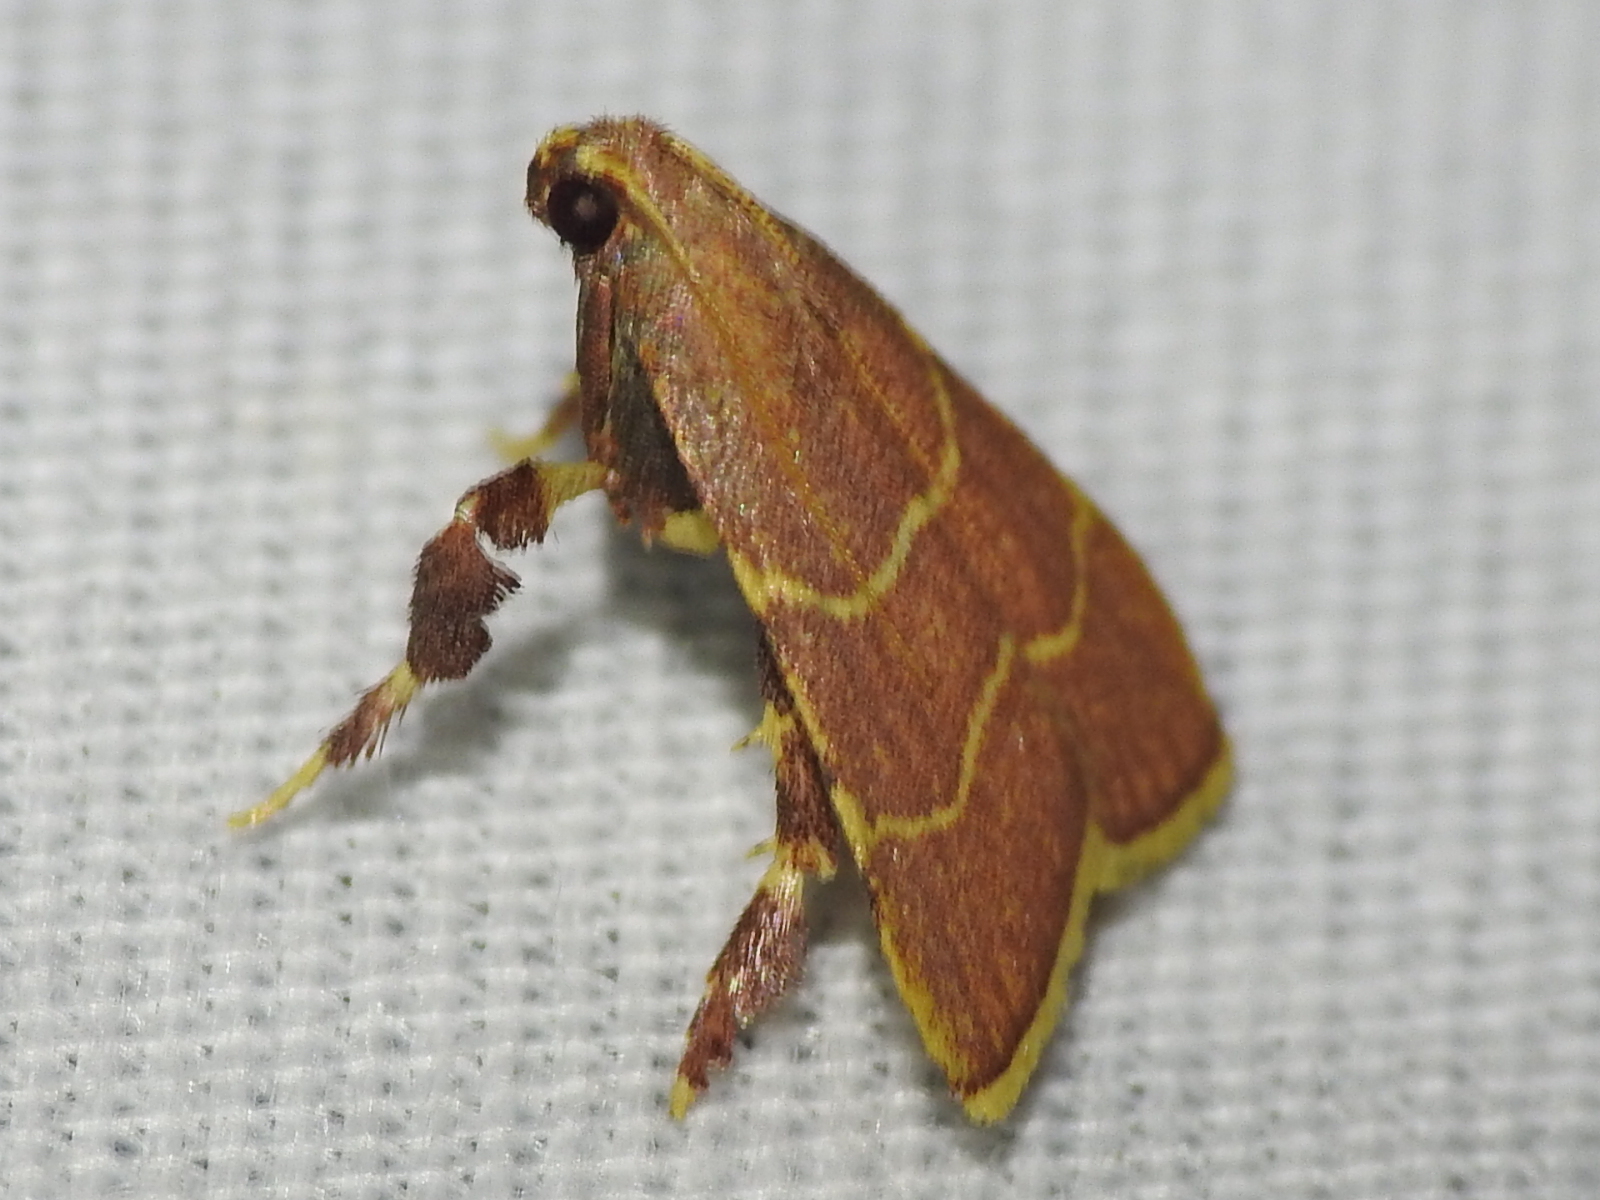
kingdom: Animalia
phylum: Arthropoda
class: Insecta
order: Lepidoptera
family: Pyralidae
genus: Parachma
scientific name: Parachma ochracealis
